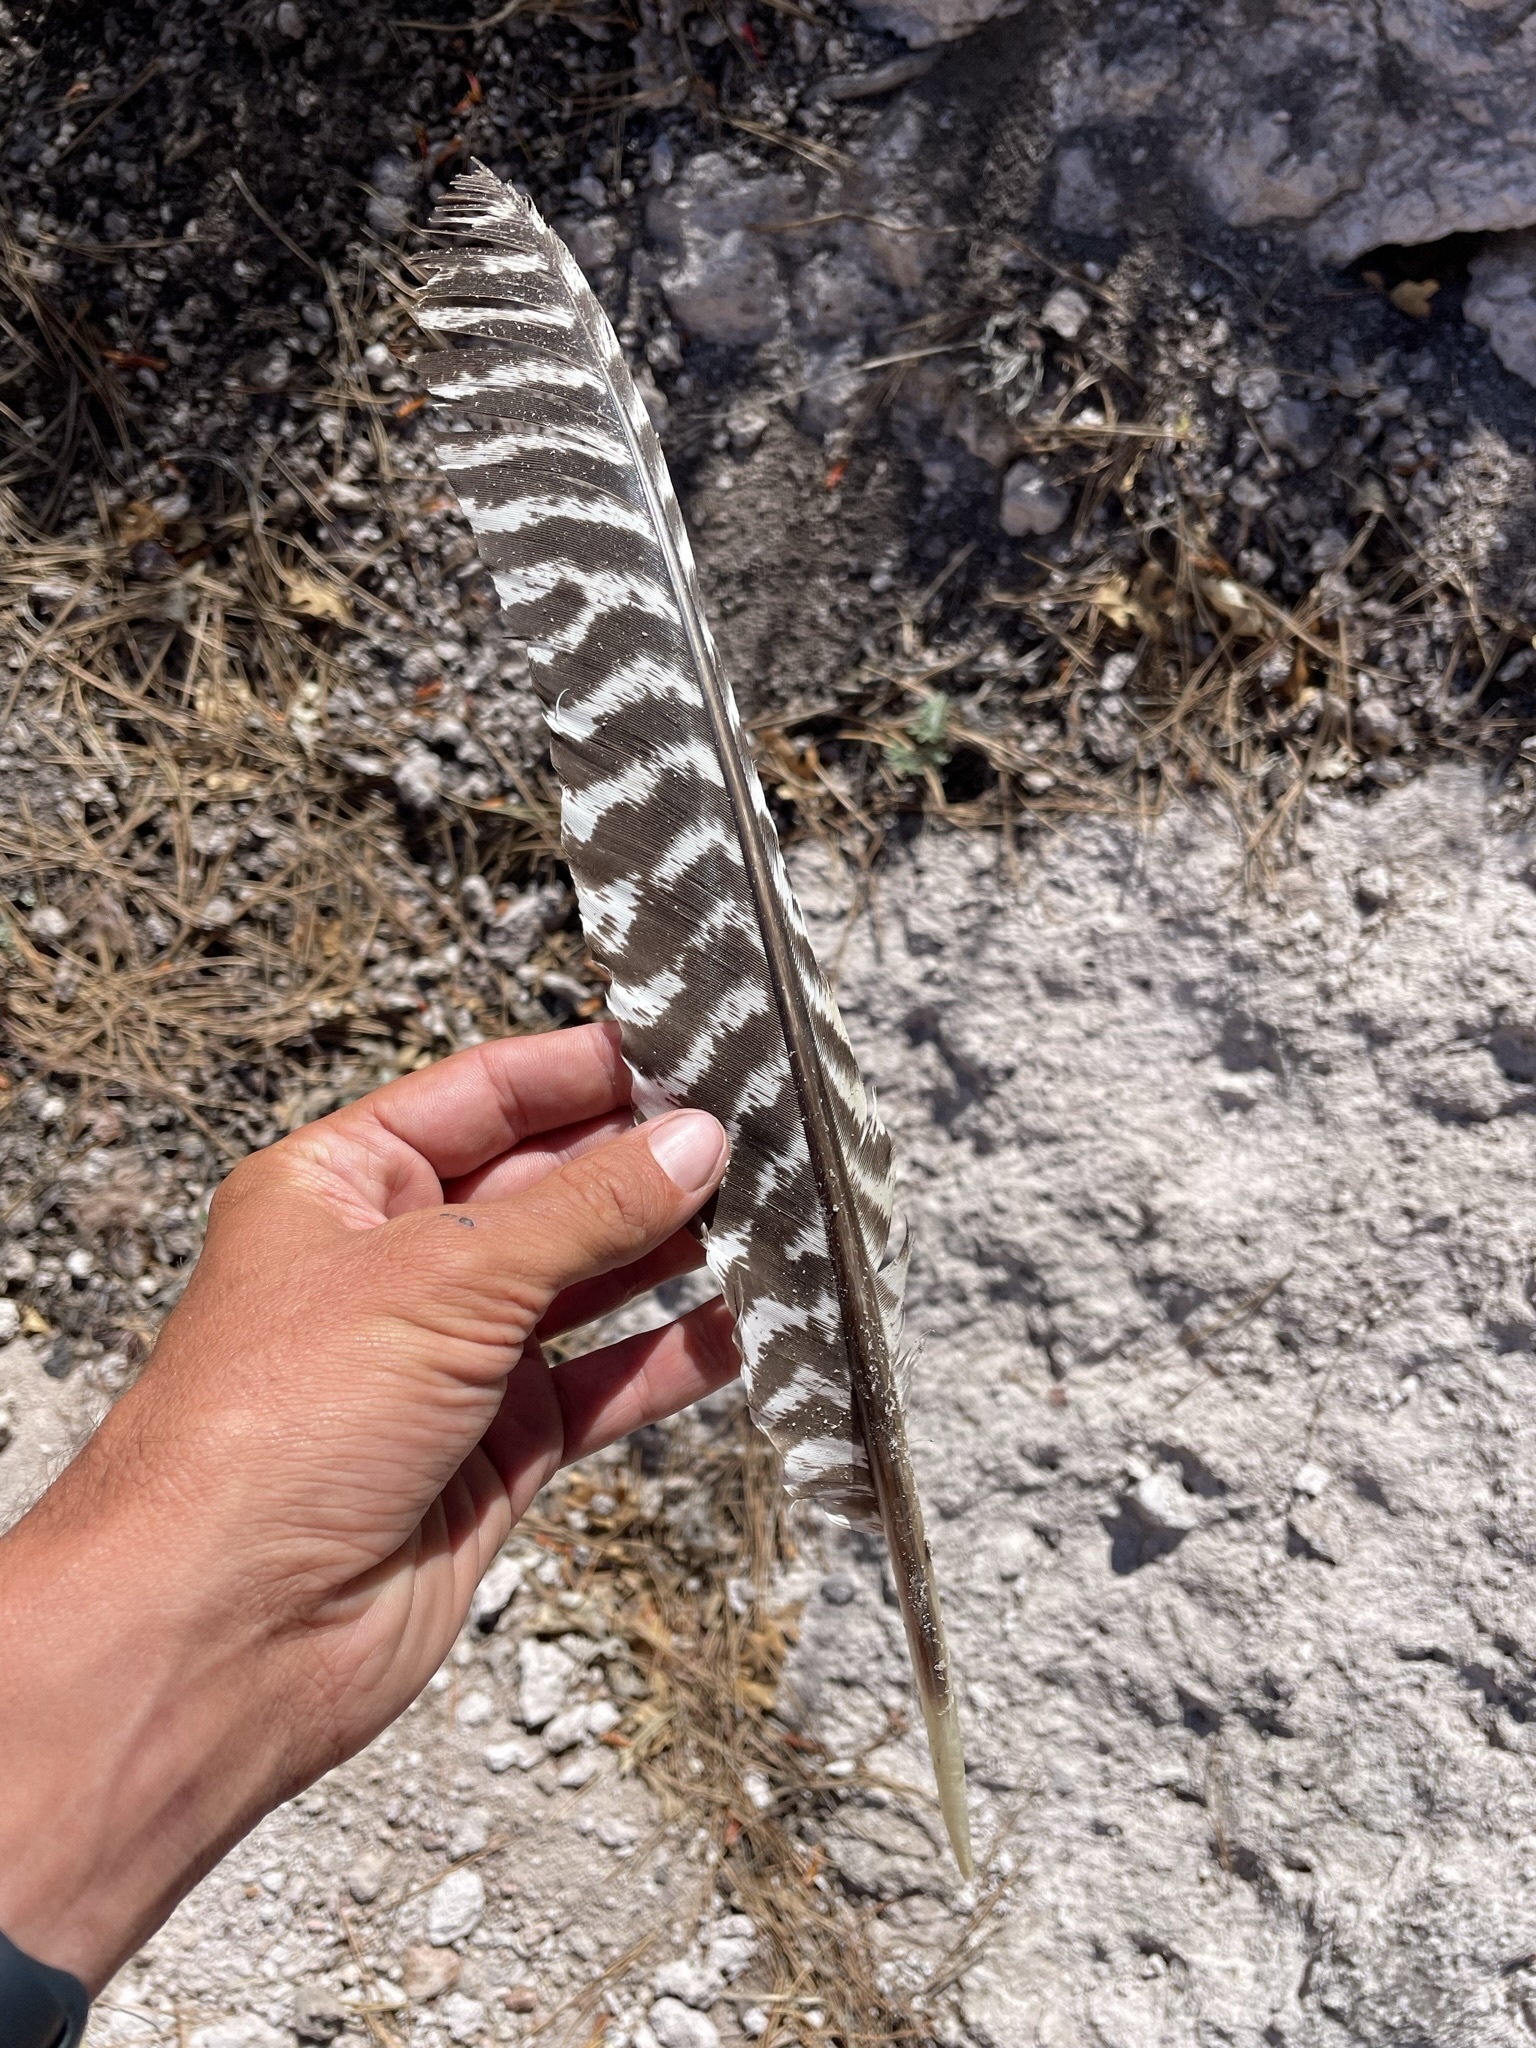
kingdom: Animalia
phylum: Chordata
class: Aves
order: Galliformes
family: Phasianidae
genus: Meleagris
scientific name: Meleagris gallopavo
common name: Wild turkey
